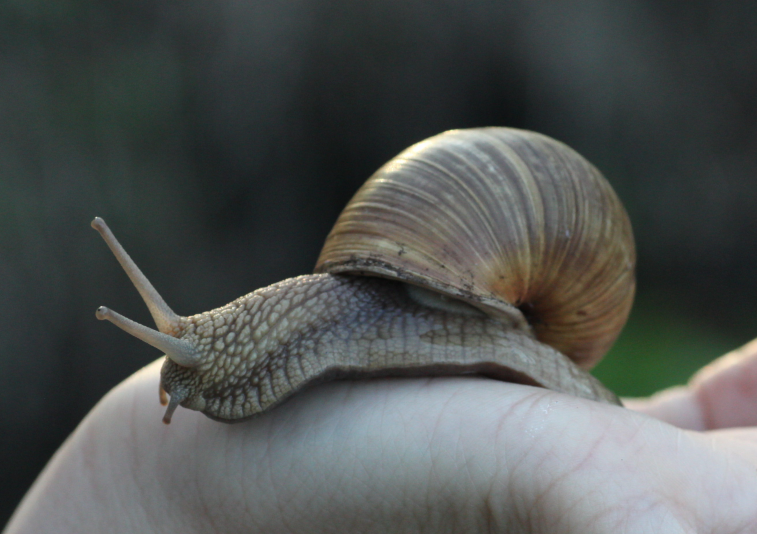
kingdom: Animalia
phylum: Mollusca
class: Gastropoda
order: Stylommatophora
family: Helicidae
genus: Helix
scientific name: Helix pomatia
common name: Roman snail
